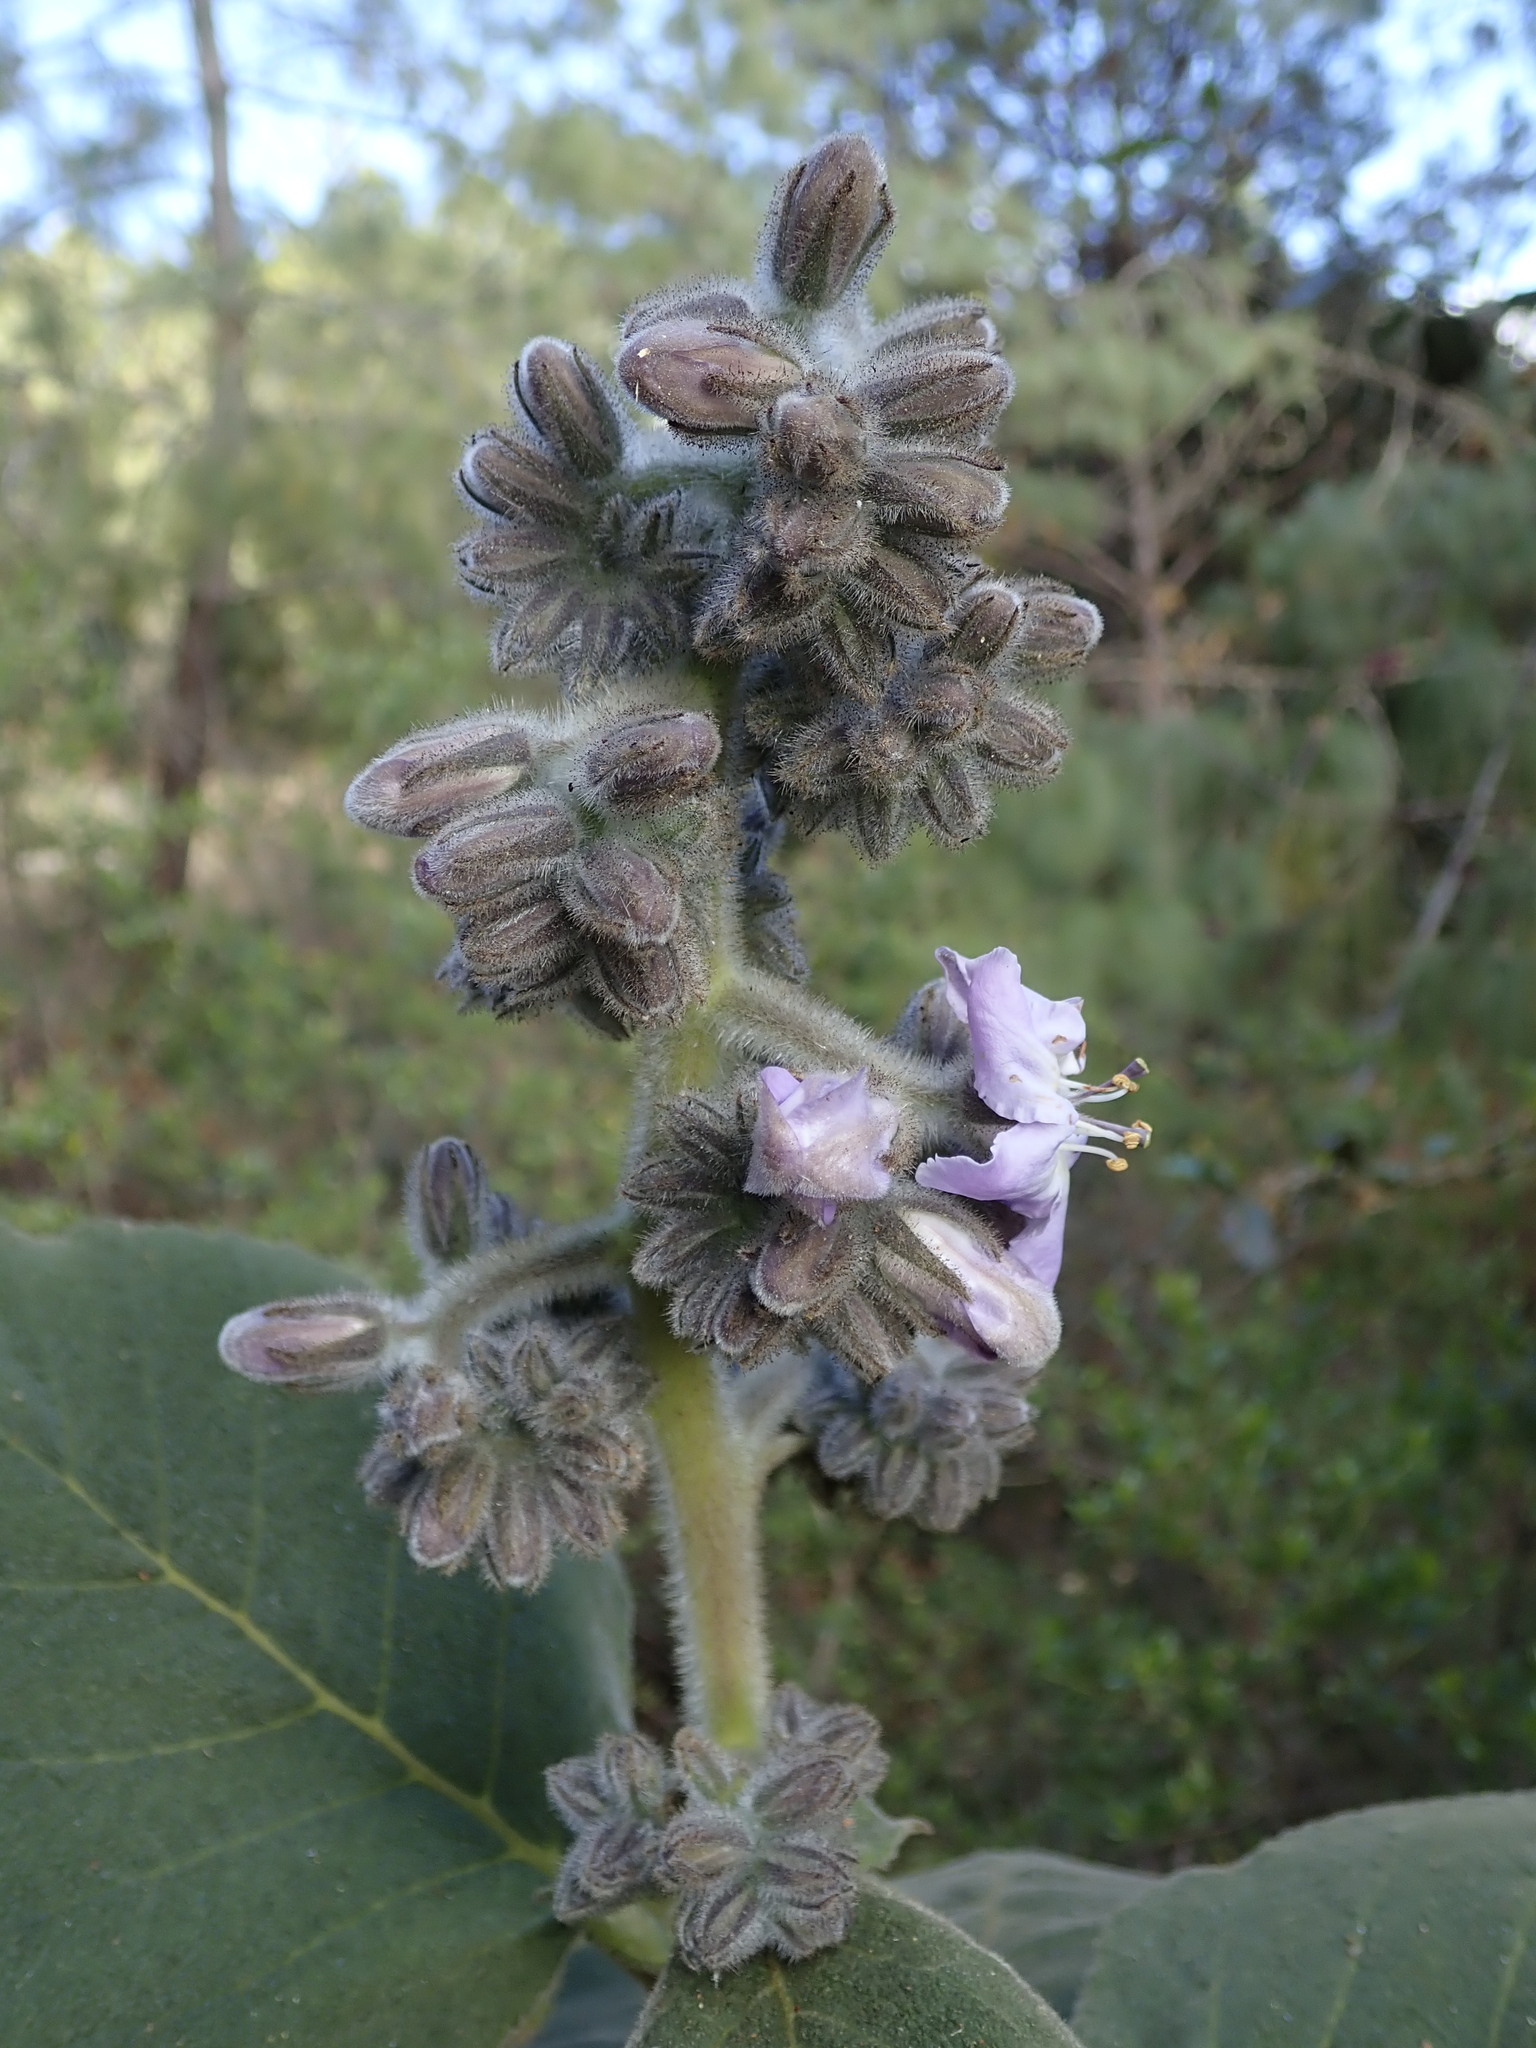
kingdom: Plantae
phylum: Tracheophyta
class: Magnoliopsida
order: Boraginales
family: Namaceae
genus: Wigandia
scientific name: Wigandia urens
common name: Caracus wigandia
